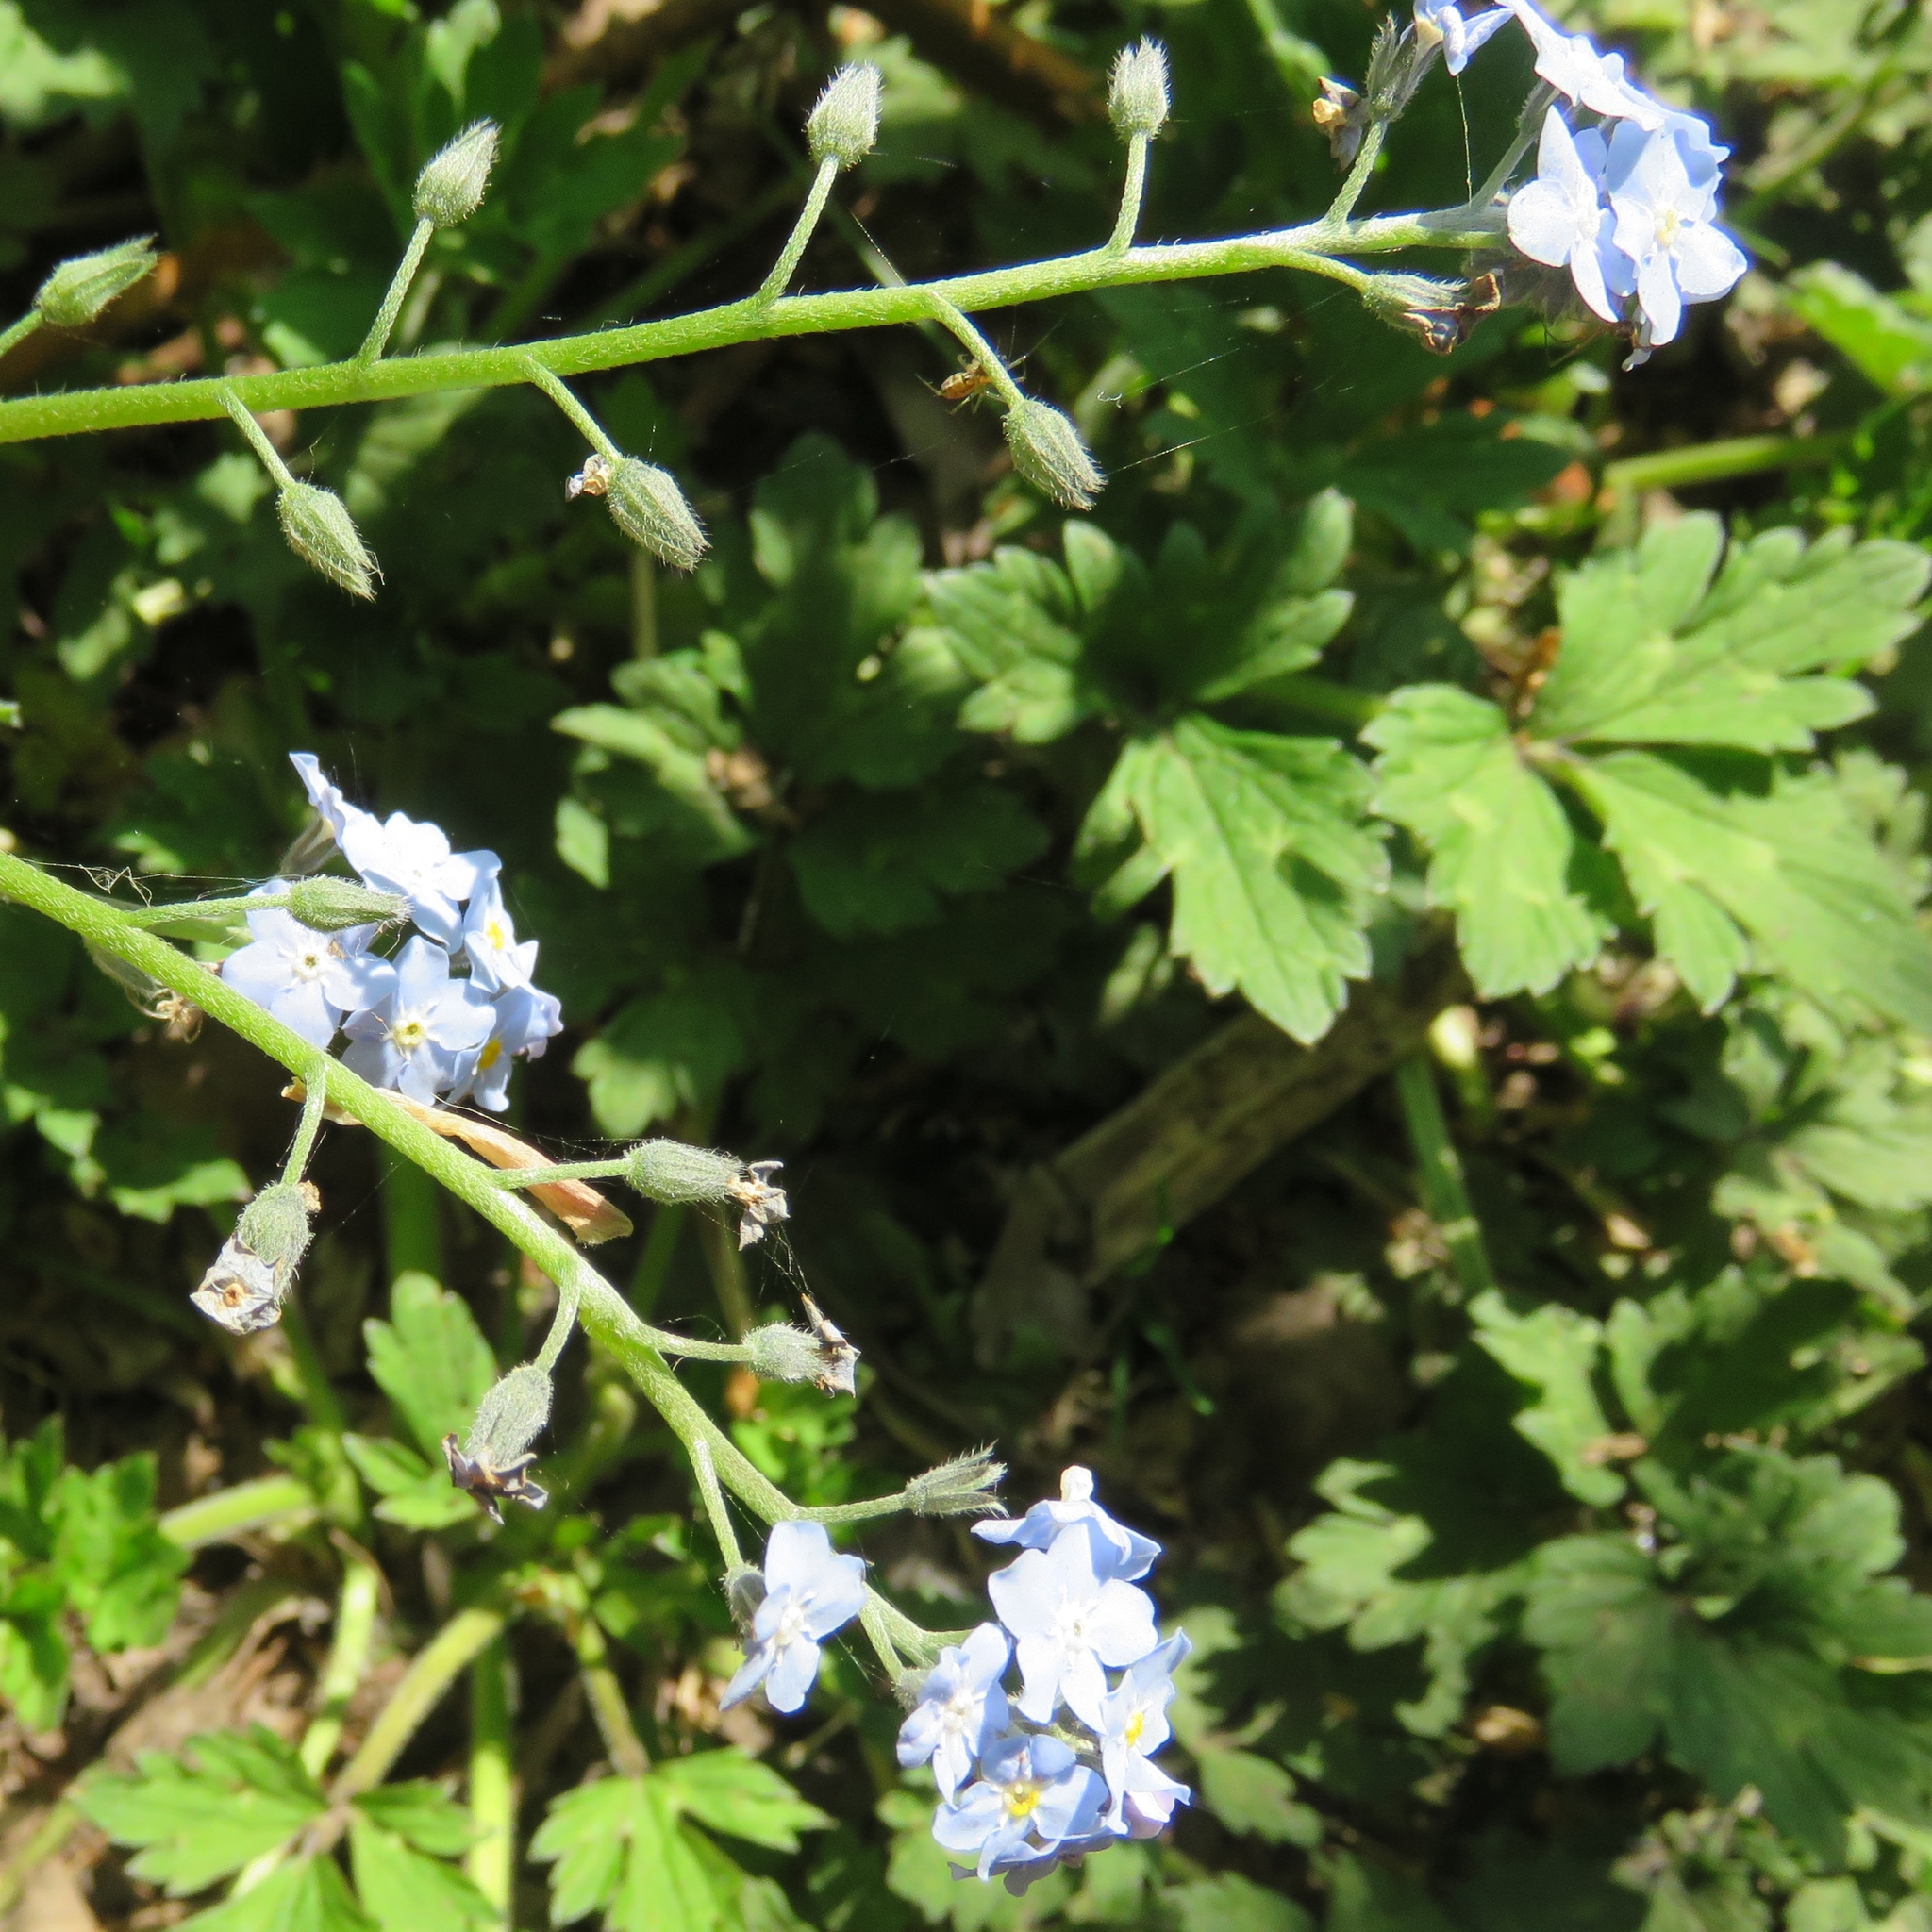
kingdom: Plantae
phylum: Tracheophyta
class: Magnoliopsida
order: Boraginales
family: Boraginaceae
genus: Myosotis
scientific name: Myosotis sylvatica
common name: Wood forget-me-not
